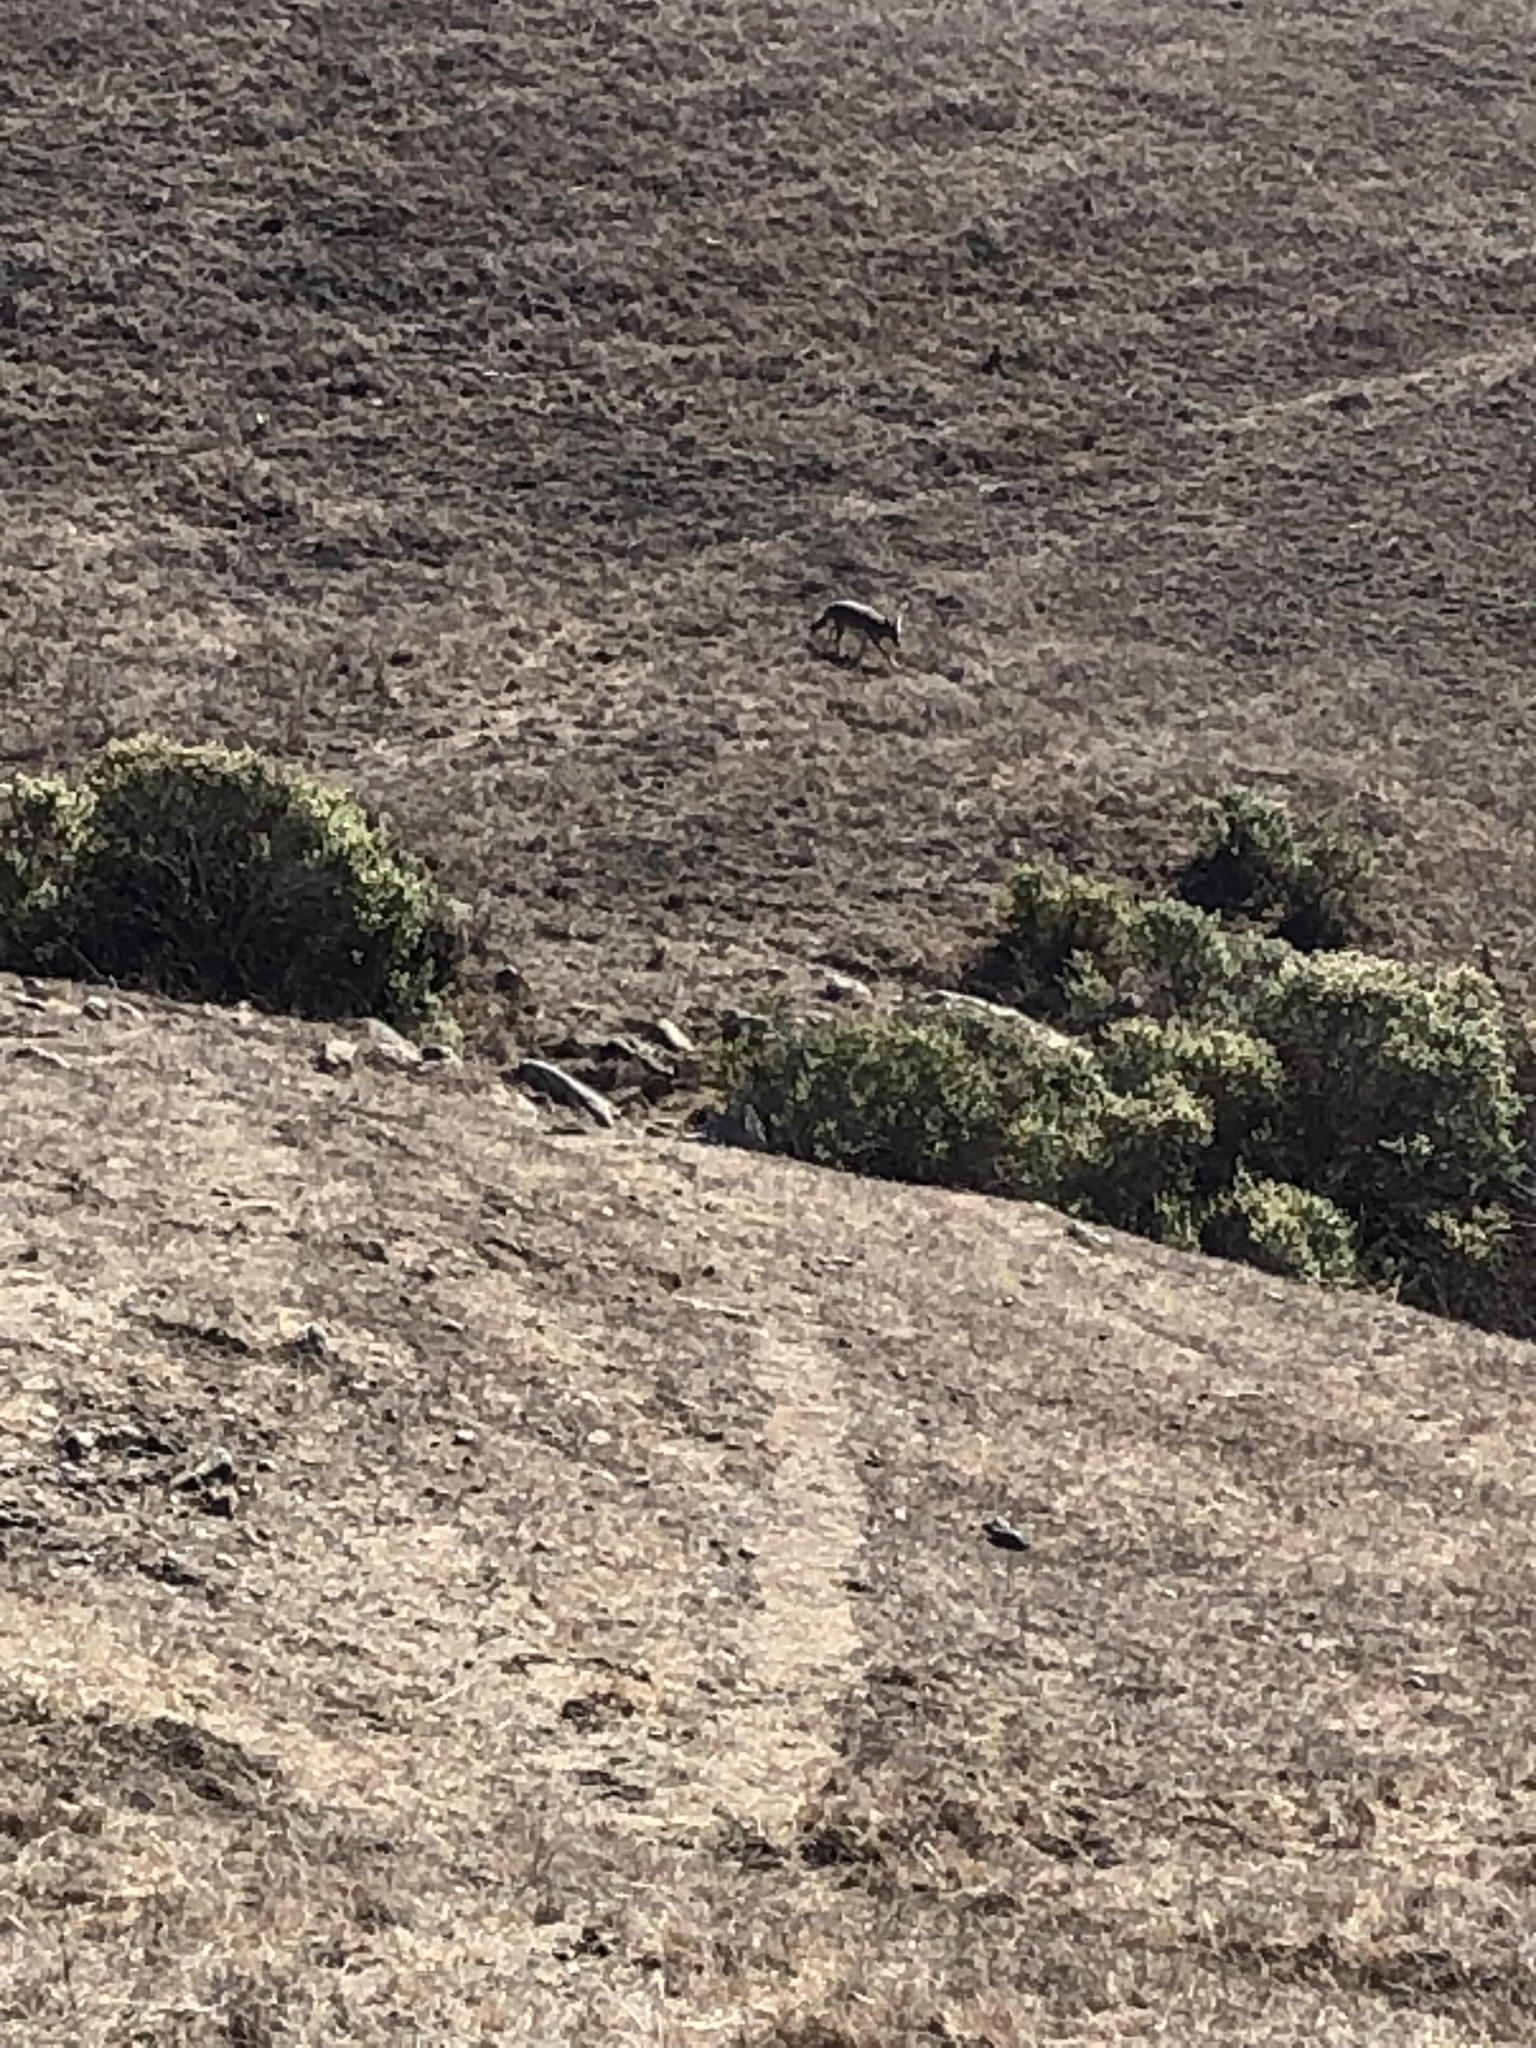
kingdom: Animalia
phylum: Chordata
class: Mammalia
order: Carnivora
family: Canidae
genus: Canis
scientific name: Canis latrans
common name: Coyote
